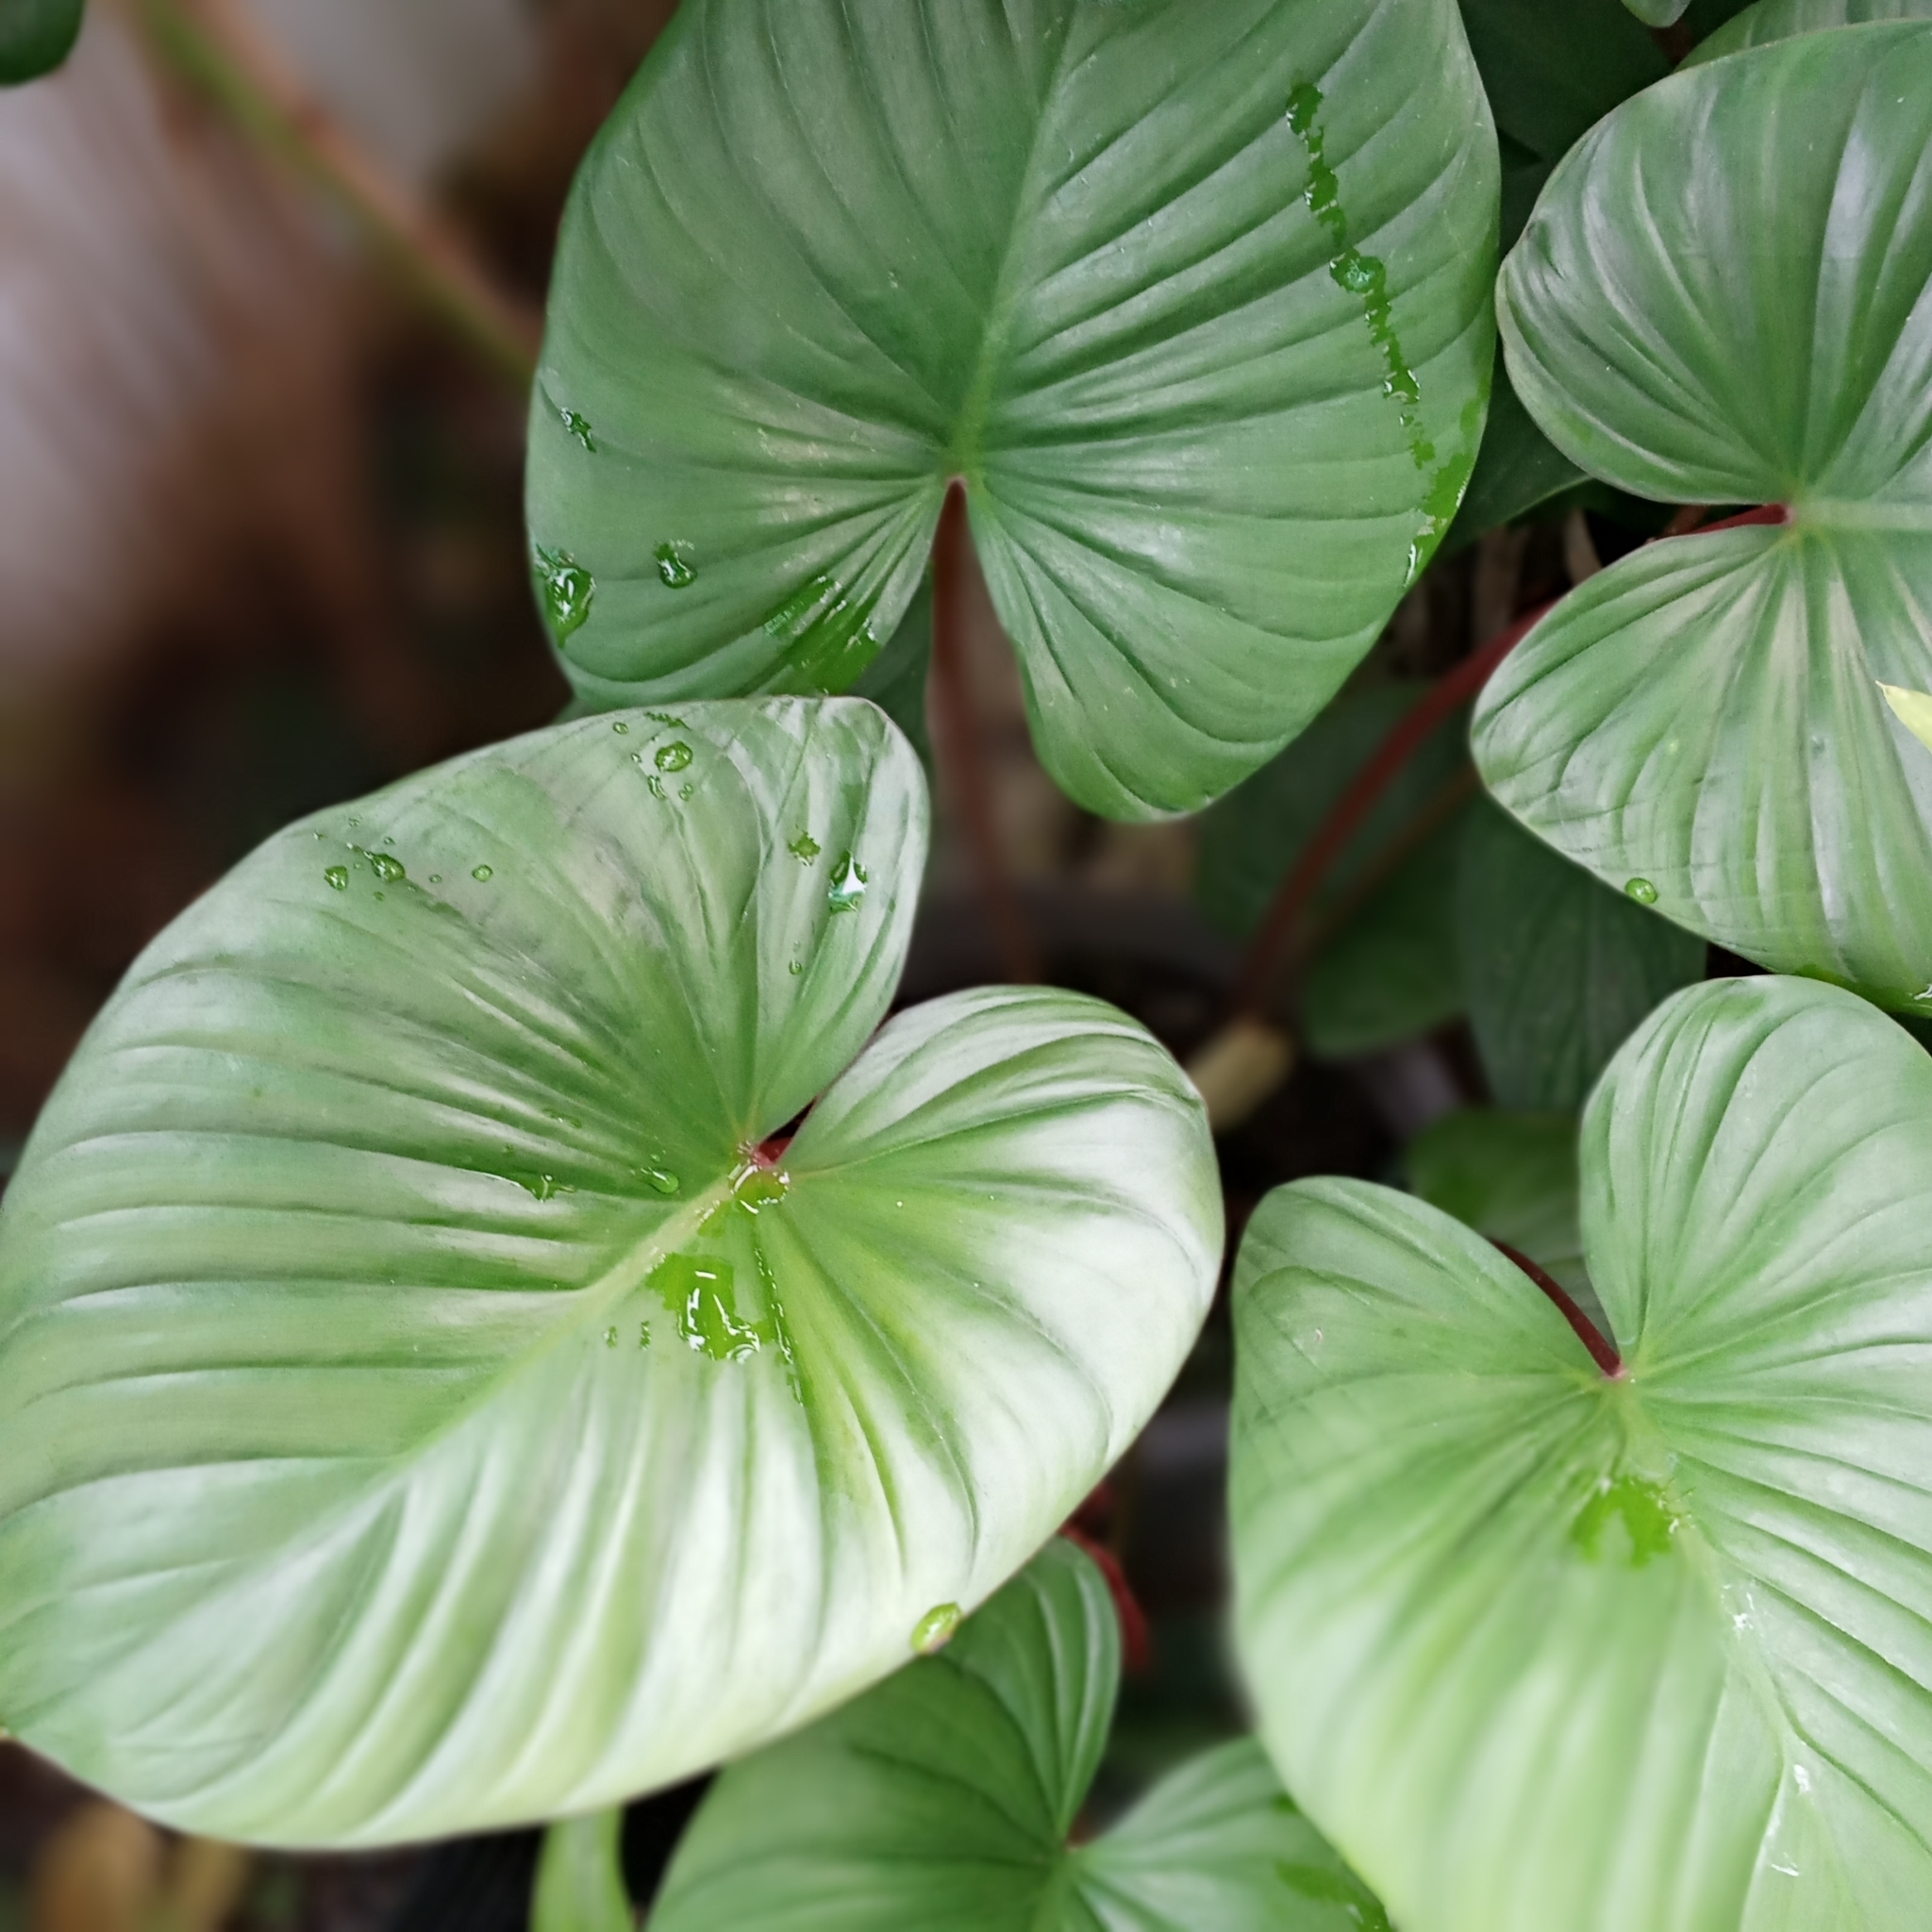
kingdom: Plantae
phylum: Tracheophyta
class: Liliopsida
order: Alismatales
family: Araceae
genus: Homalomena
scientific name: Homalomena rubescens
